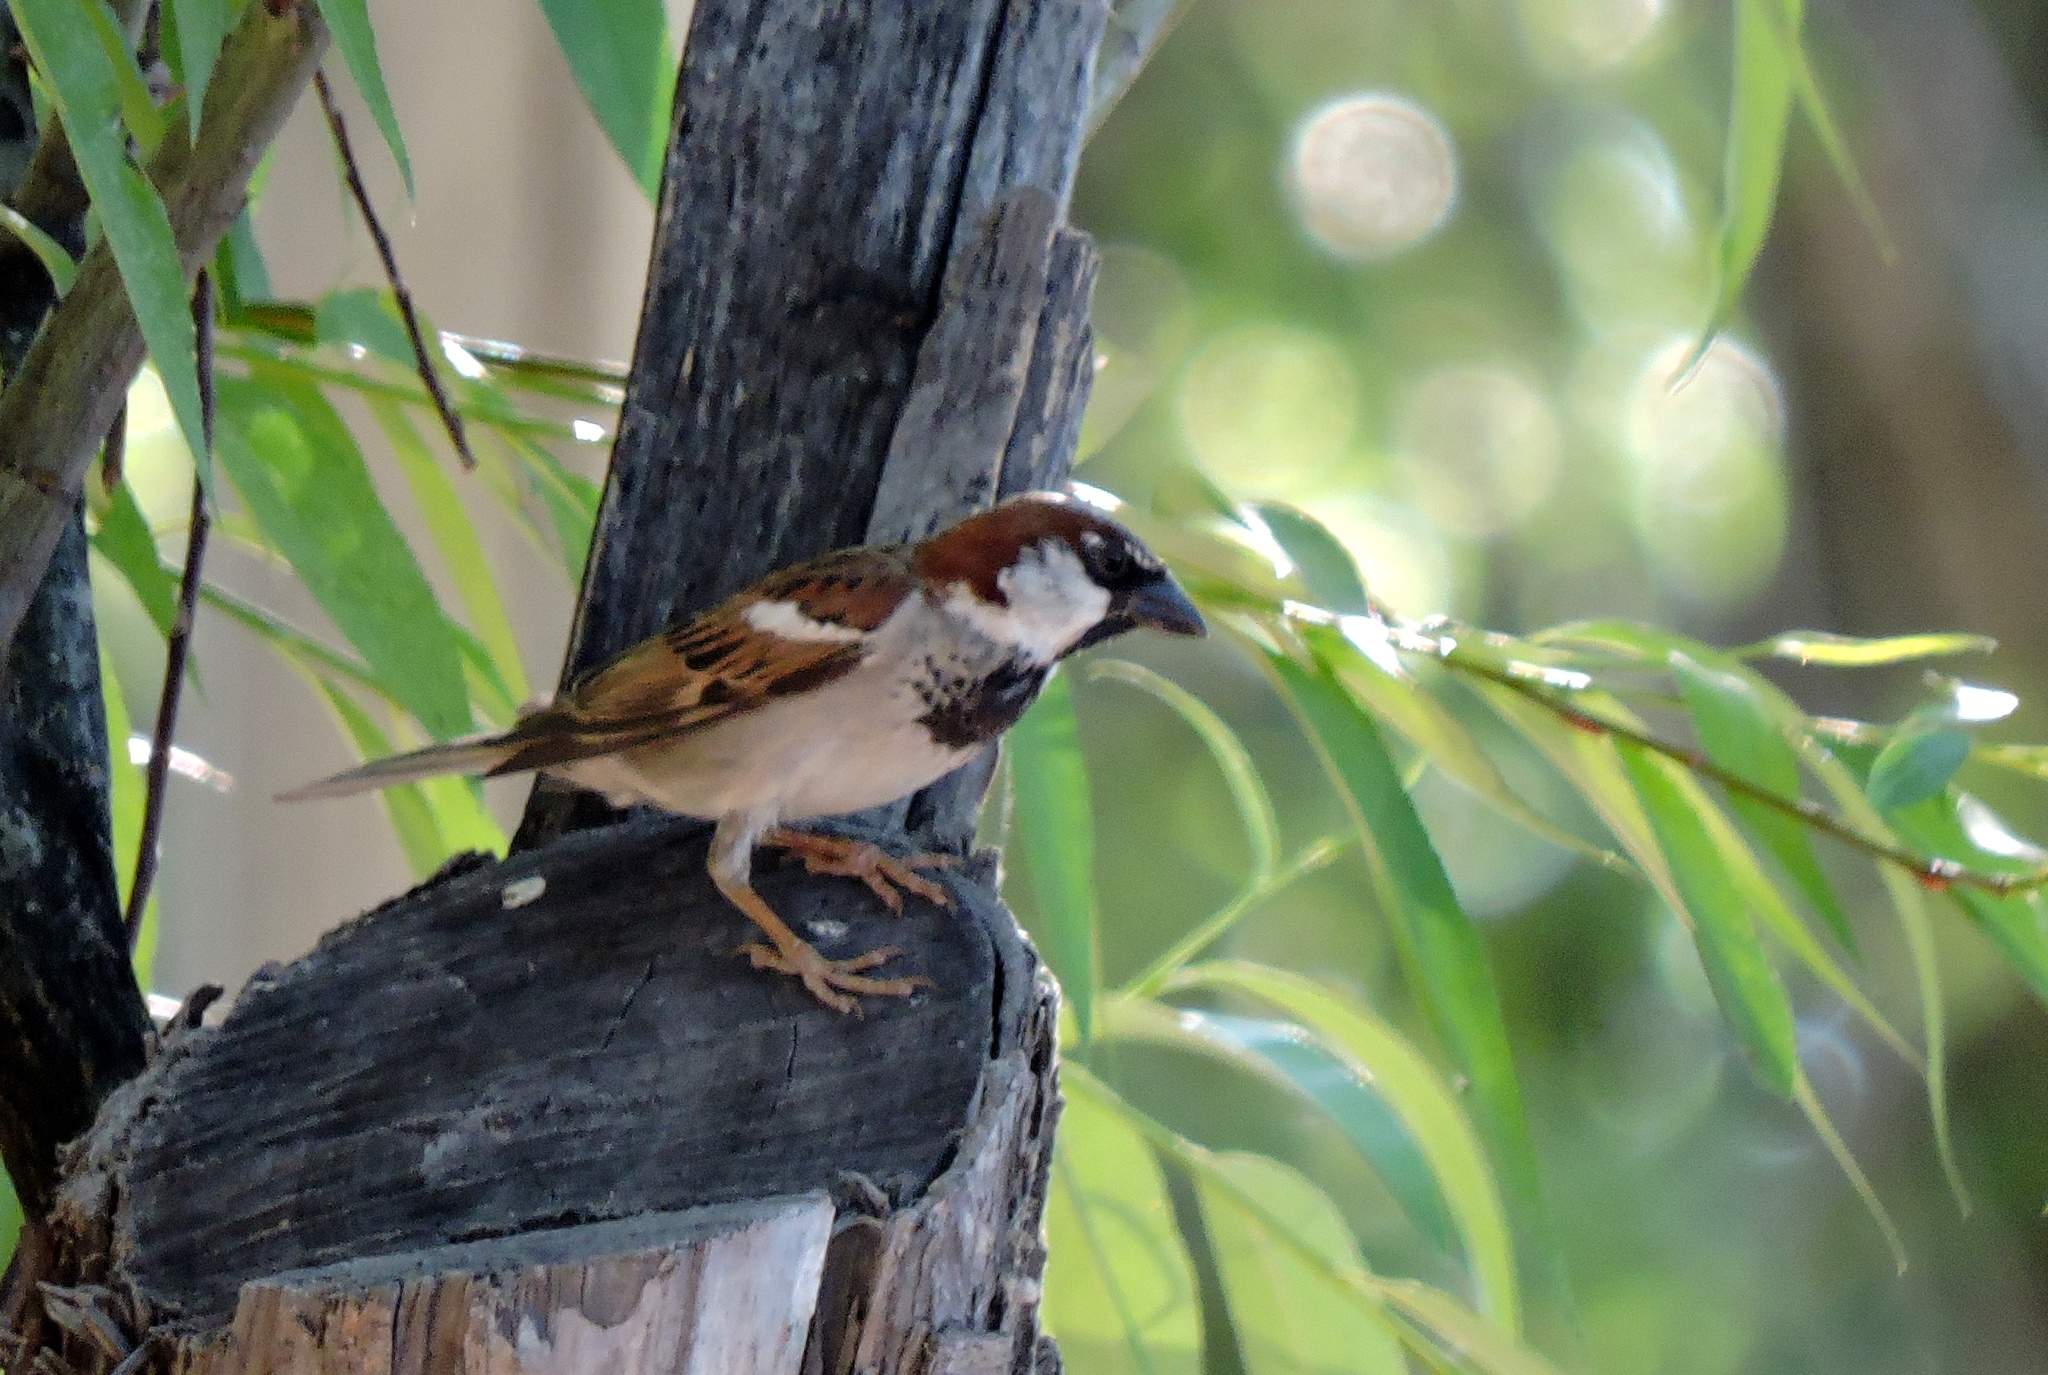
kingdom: Animalia
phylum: Chordata
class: Aves
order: Passeriformes
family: Passeridae
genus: Passer
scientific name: Passer domesticus
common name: House sparrow
